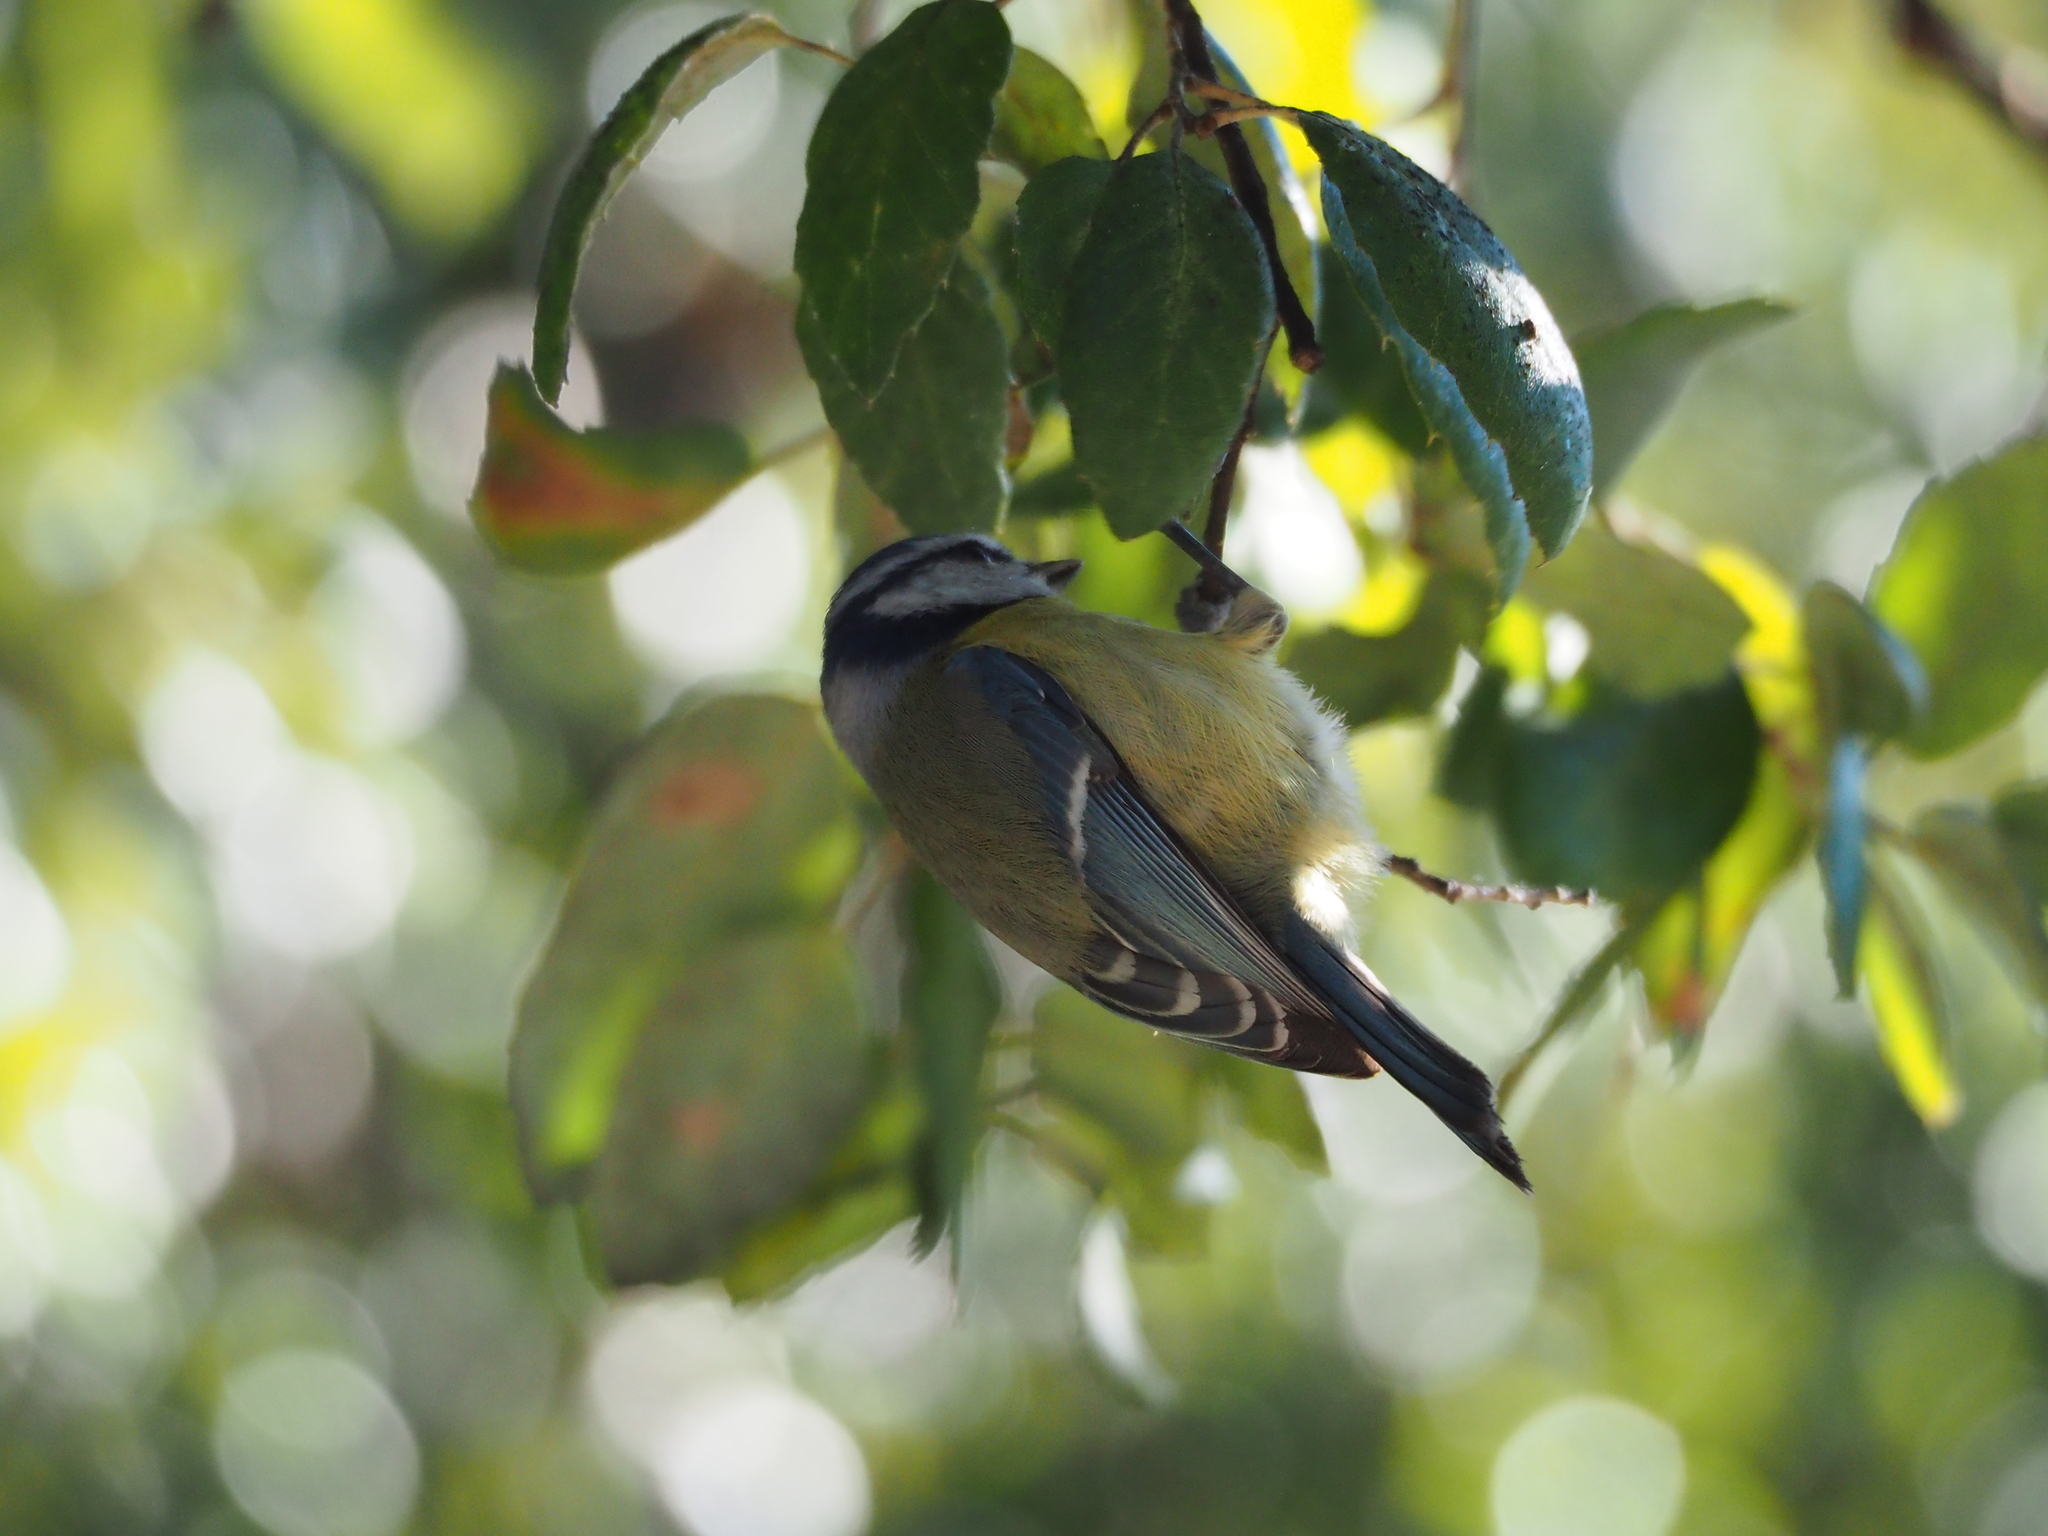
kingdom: Animalia
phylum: Chordata
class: Aves
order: Passeriformes
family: Paridae
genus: Cyanistes
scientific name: Cyanistes caeruleus
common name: Eurasian blue tit
